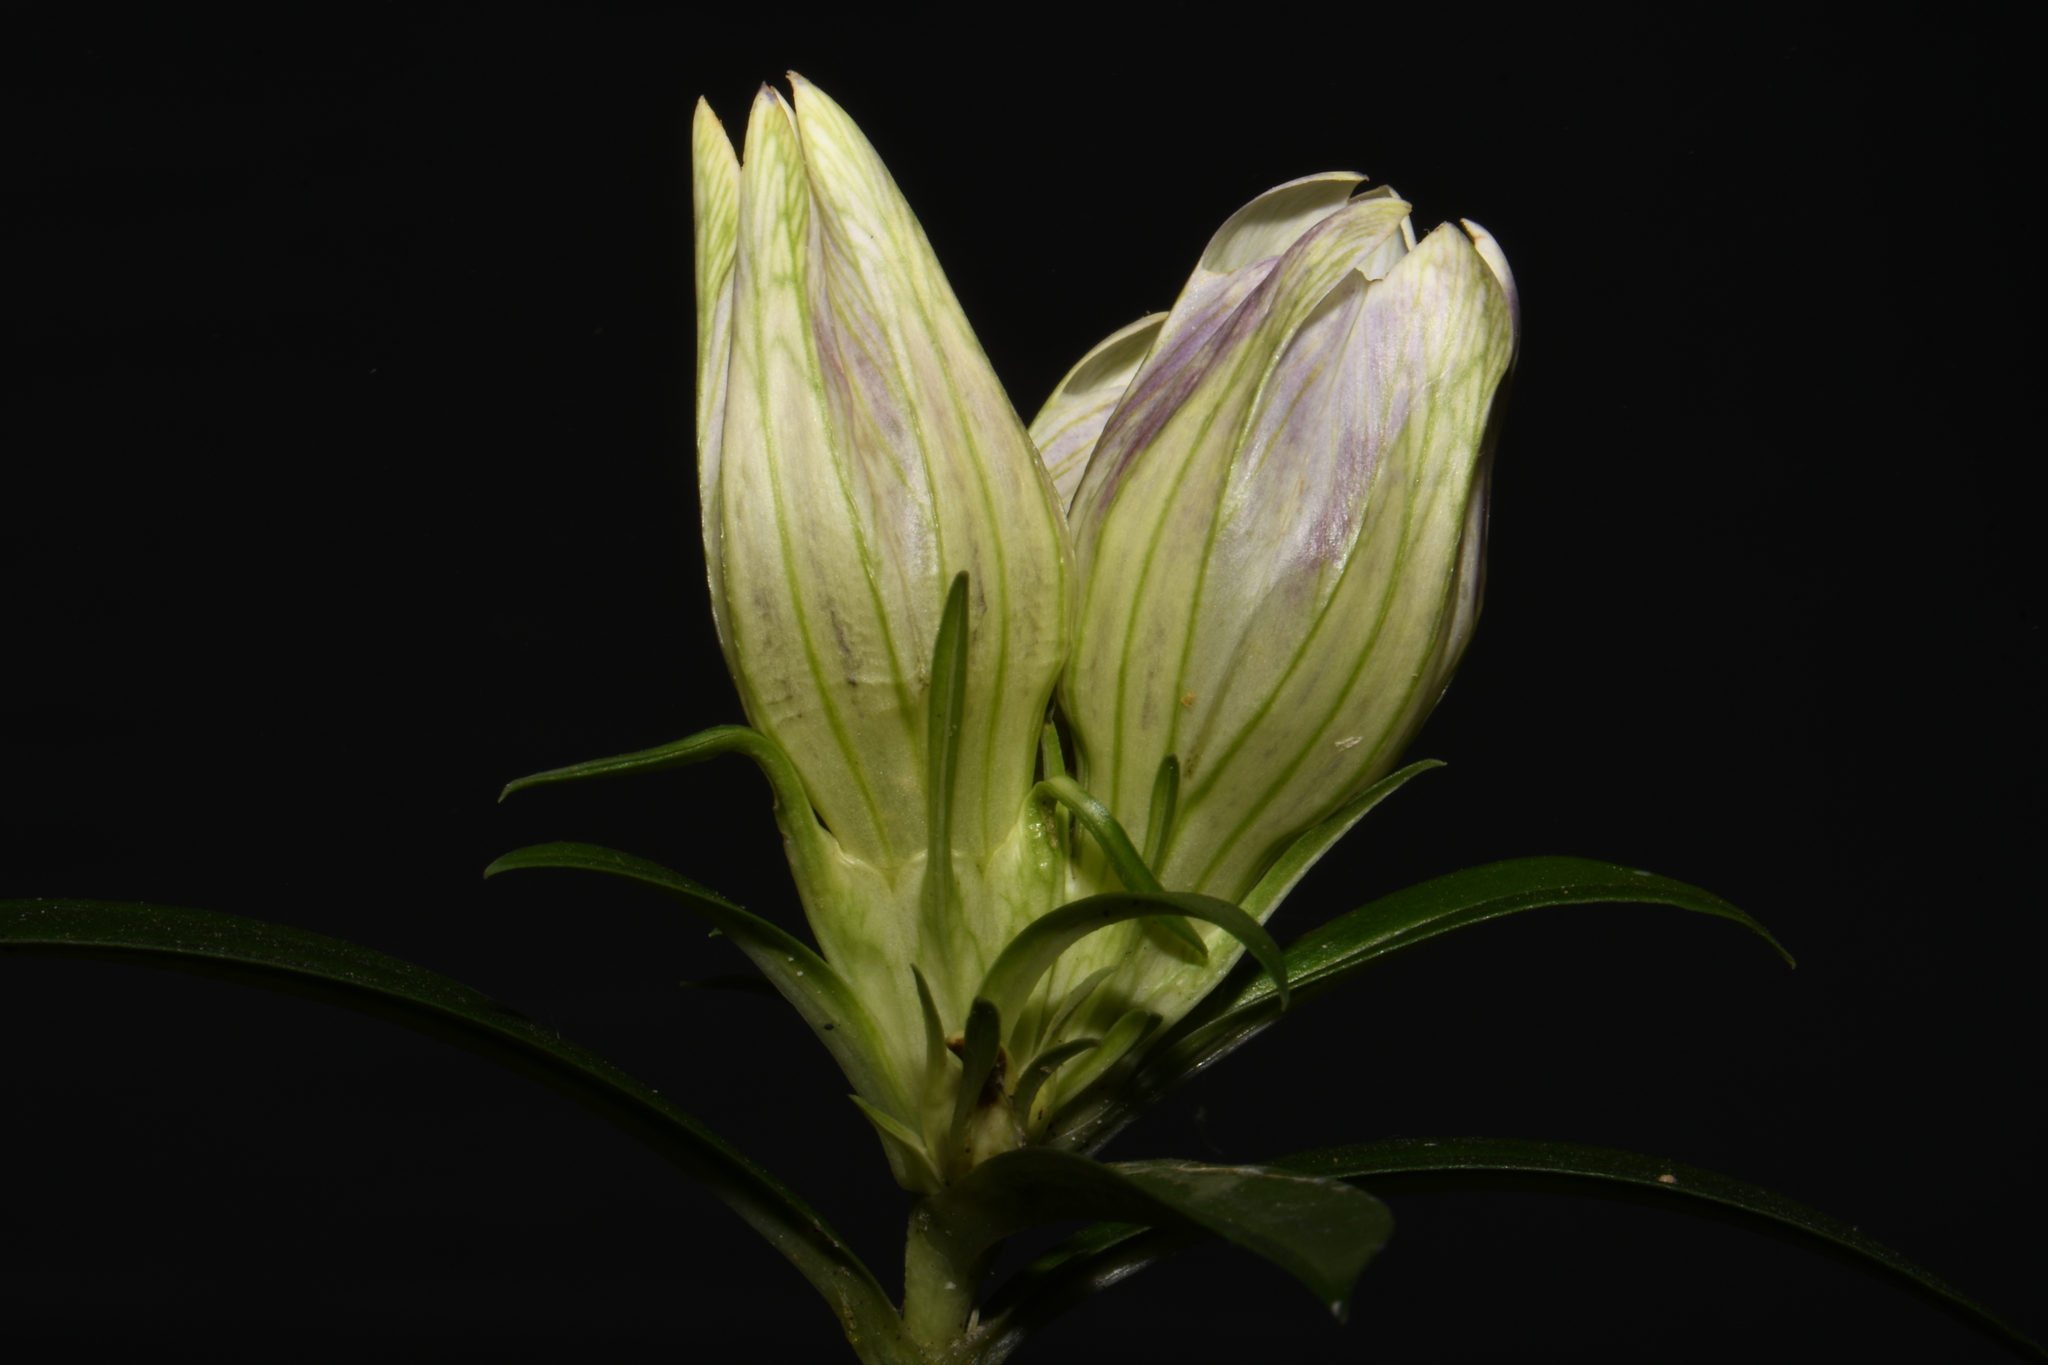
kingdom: Plantae
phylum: Tracheophyta
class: Magnoliopsida
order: Gentianales
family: Gentianaceae
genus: Gentiana
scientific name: Gentiana villosa
